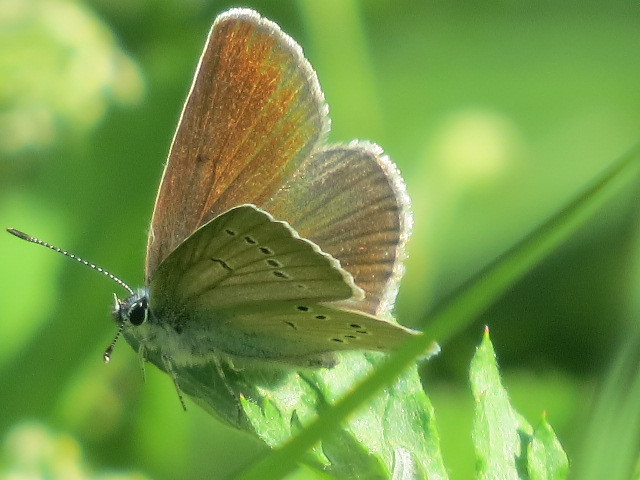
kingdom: Animalia
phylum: Arthropoda
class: Insecta
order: Lepidoptera
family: Lycaenidae
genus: Cyaniris
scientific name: Cyaniris semiargus
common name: Mazarine blue
